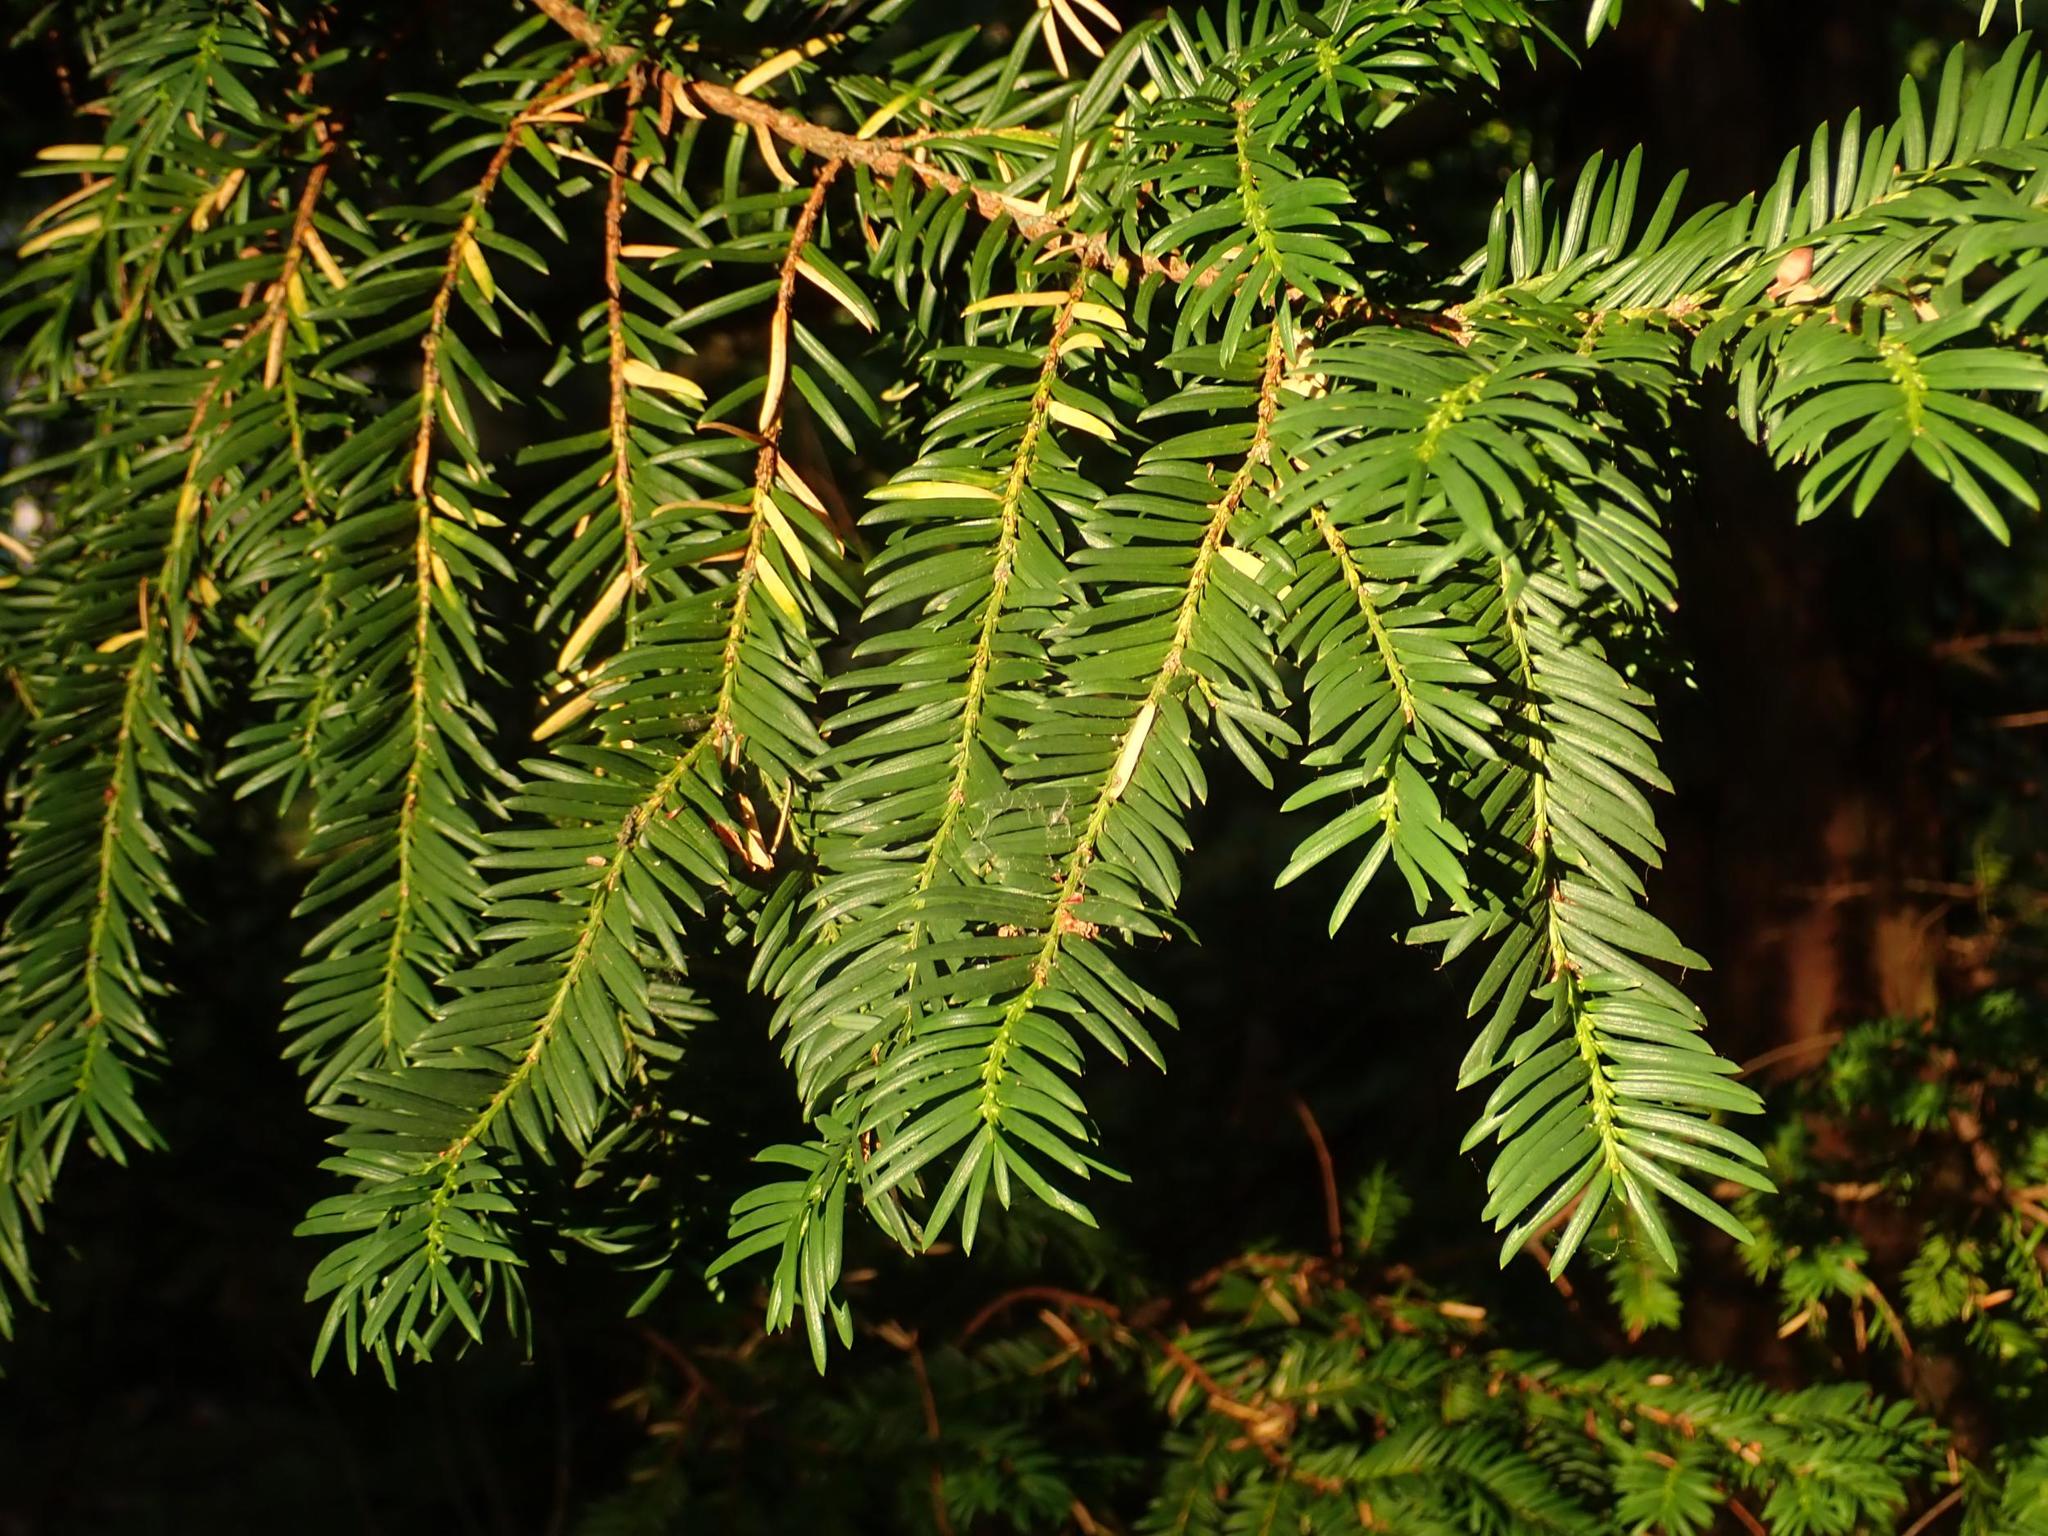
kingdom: Plantae
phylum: Tracheophyta
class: Pinopsida
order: Pinales
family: Taxaceae
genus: Taxus
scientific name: Taxus baccata
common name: Yew
